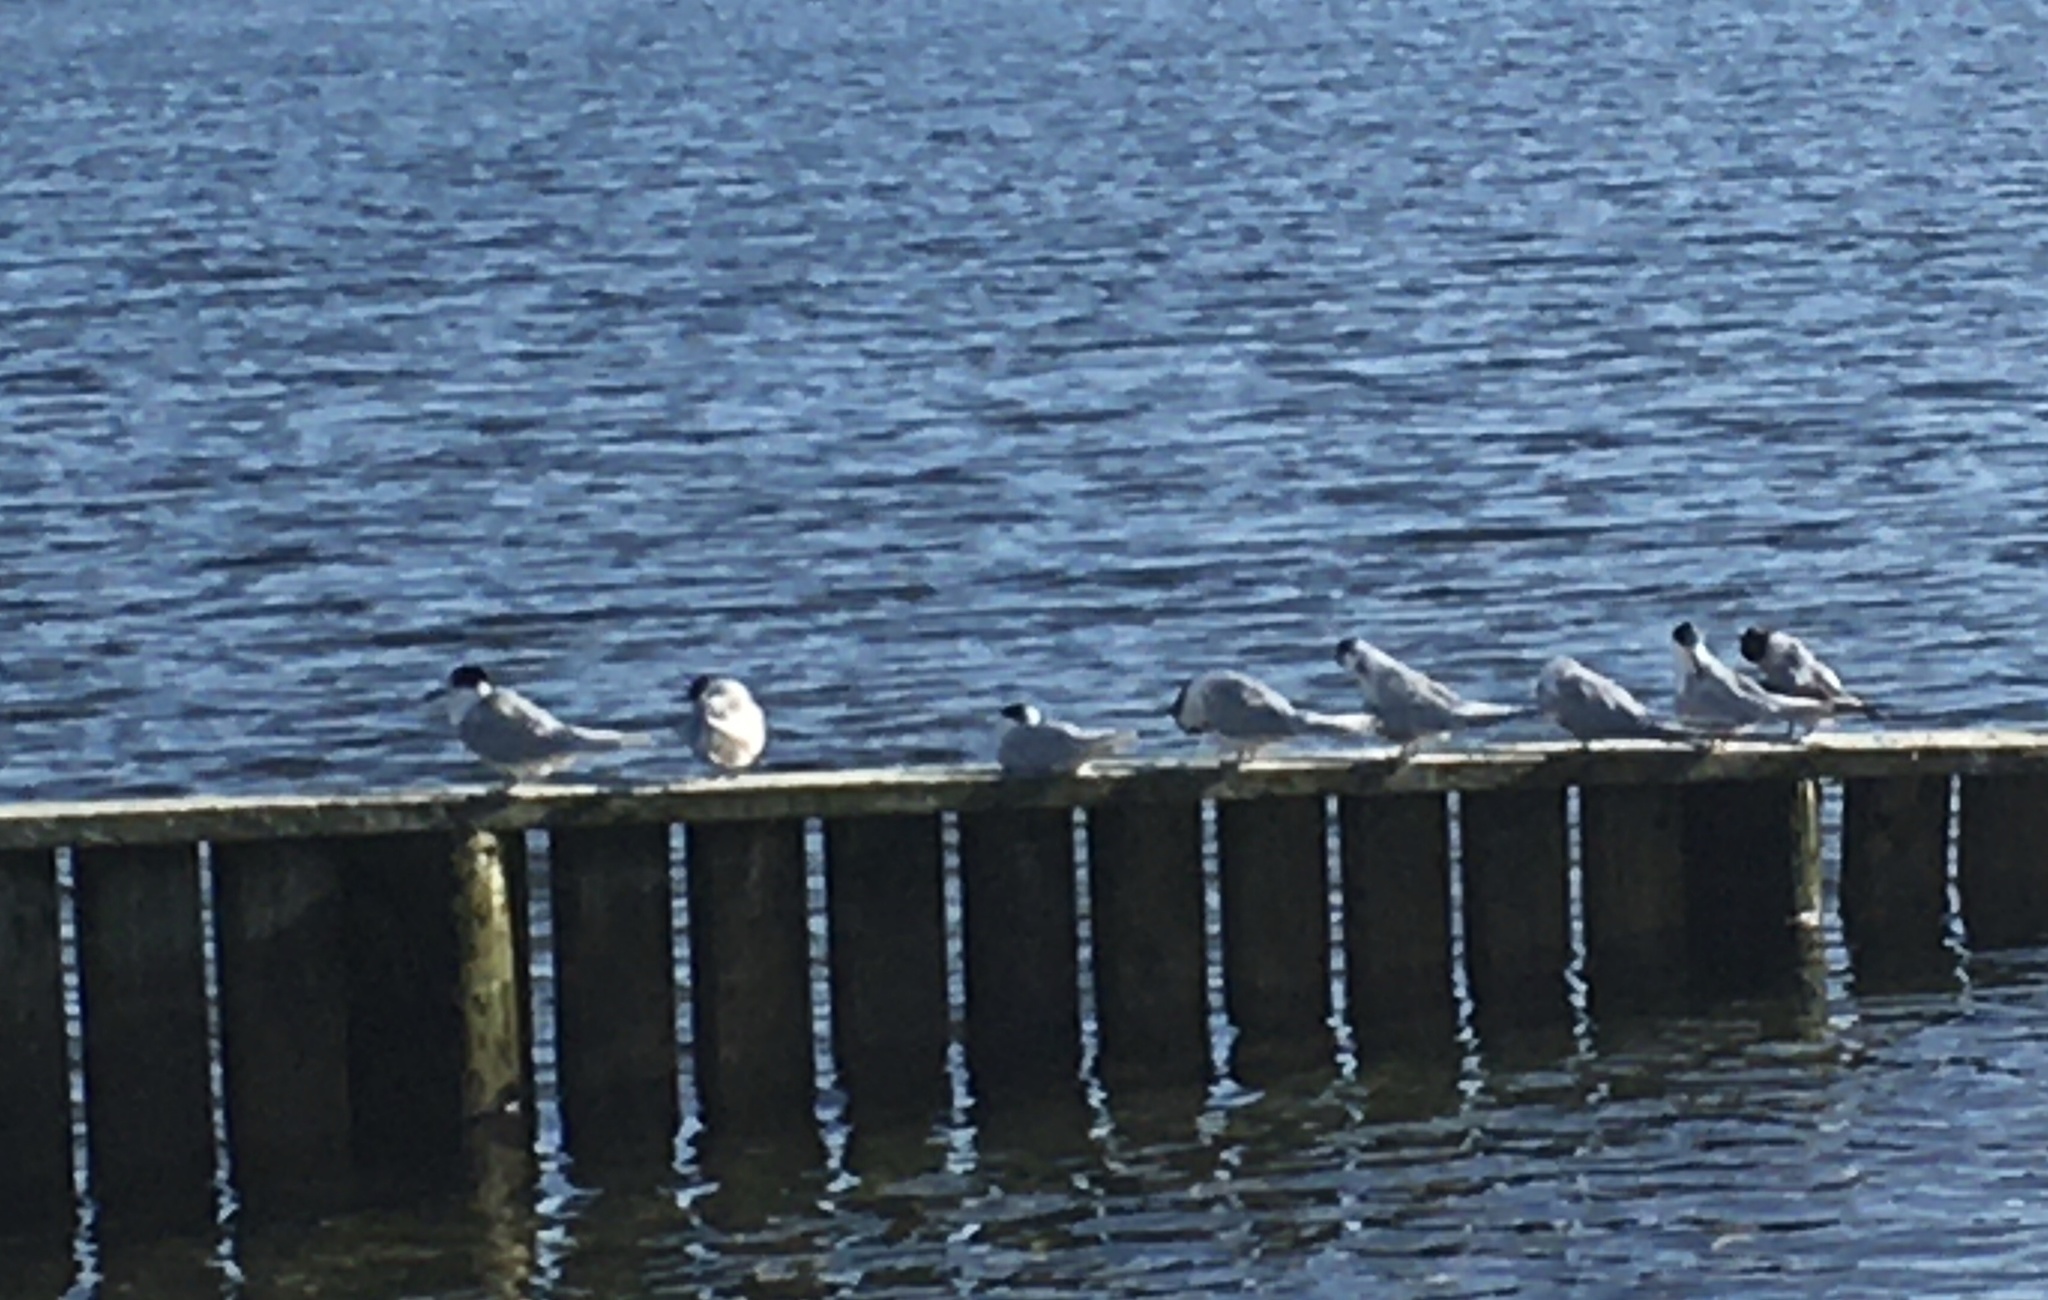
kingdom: Animalia
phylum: Chordata
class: Aves
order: Charadriiformes
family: Laridae
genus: Sterna
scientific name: Sterna striata
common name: White-fronted tern
